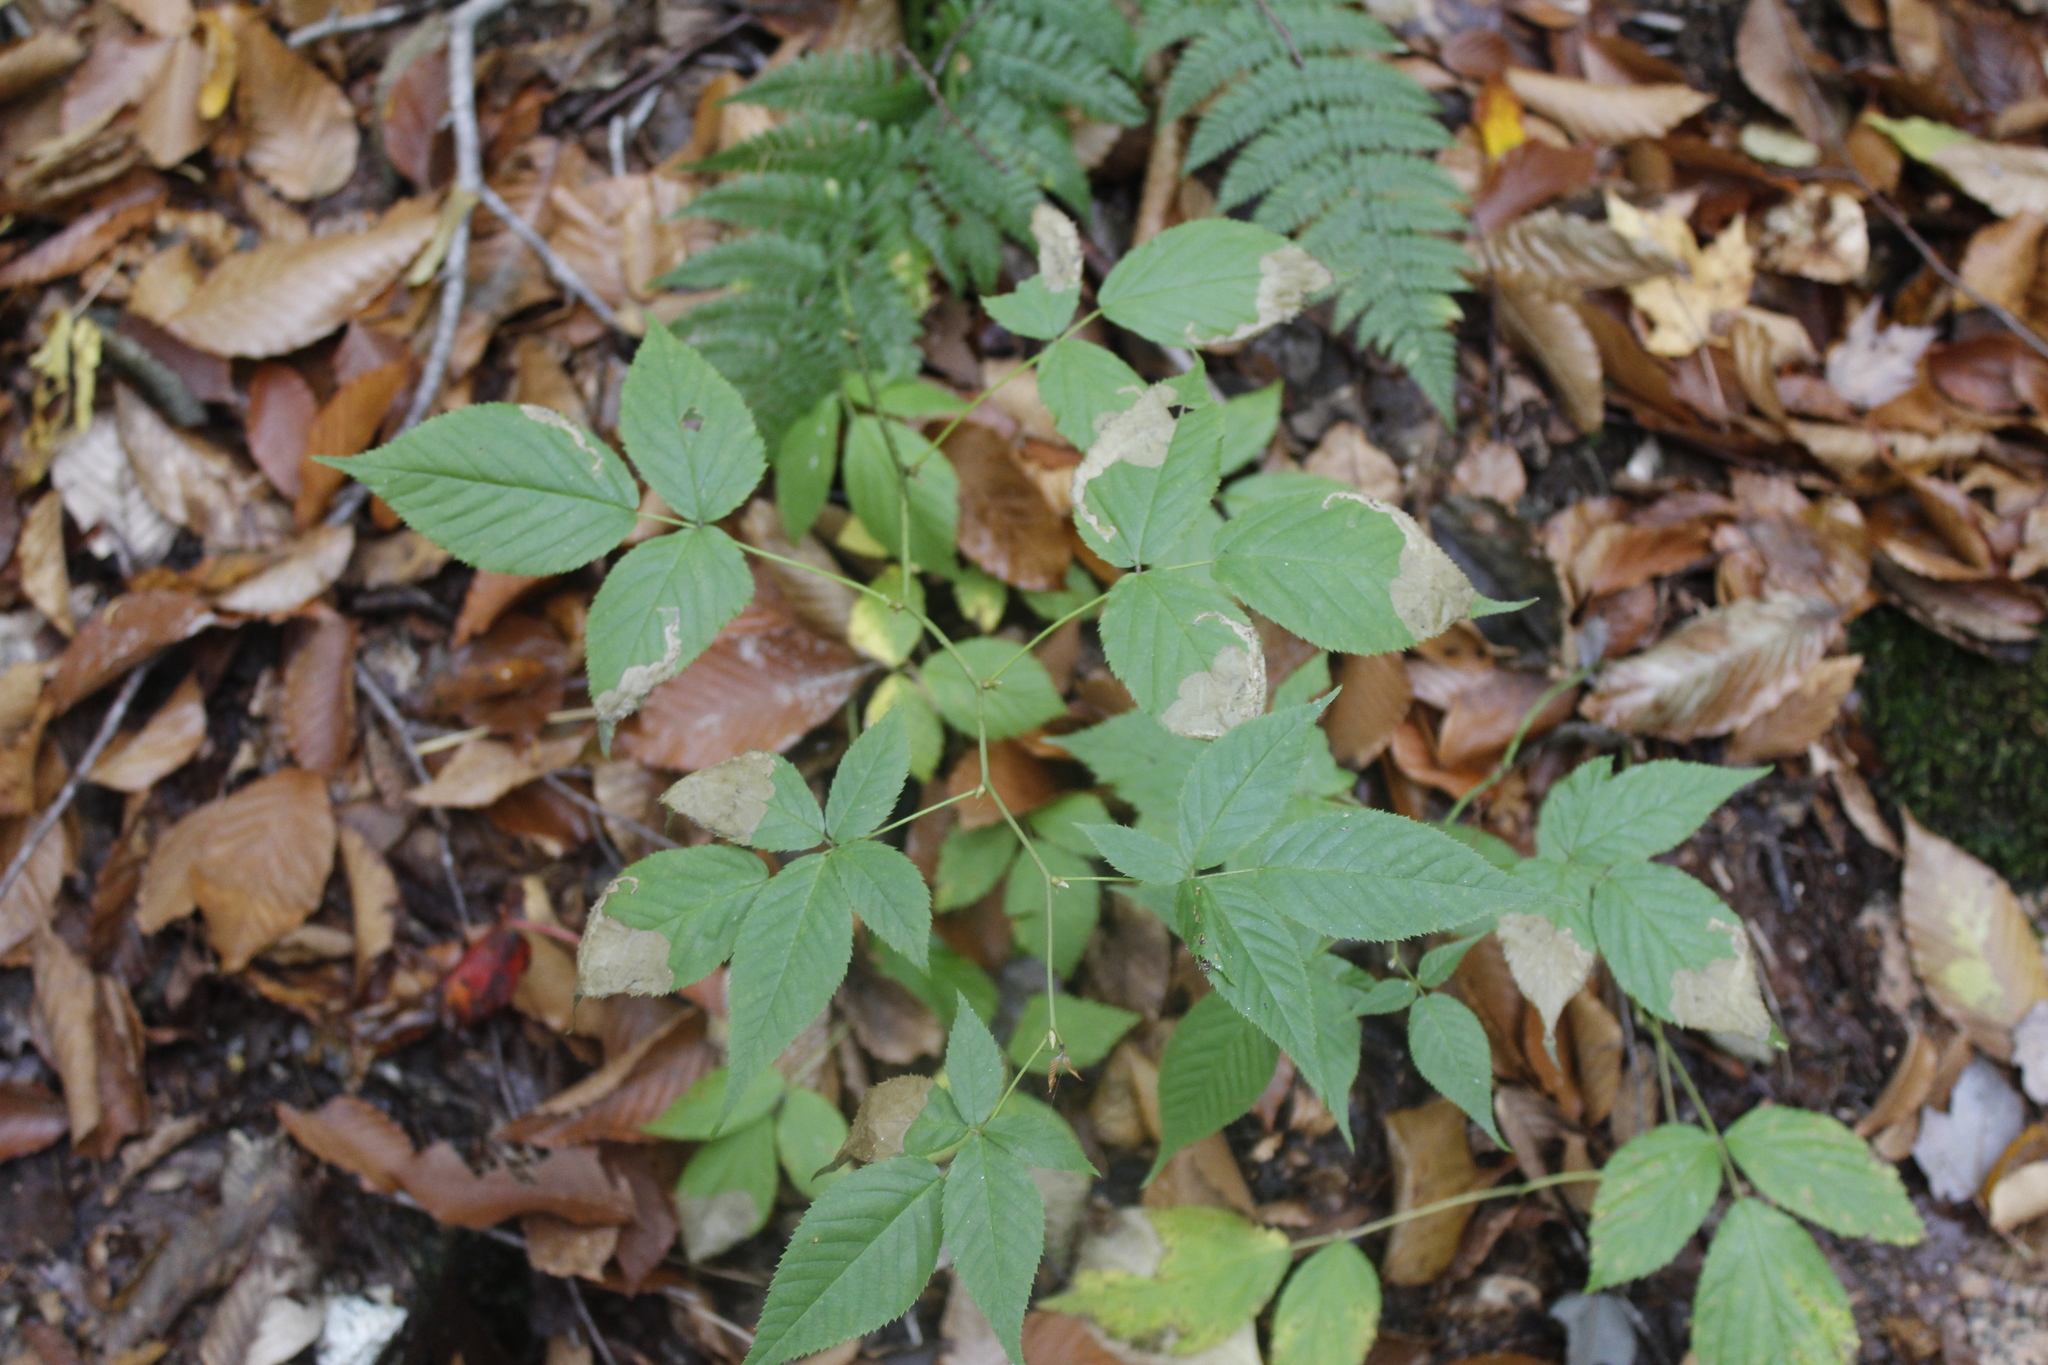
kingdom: Animalia
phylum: Arthropoda
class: Insecta
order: Hymenoptera
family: Tenthredinidae
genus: Metallus
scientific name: Metallus rohweri
